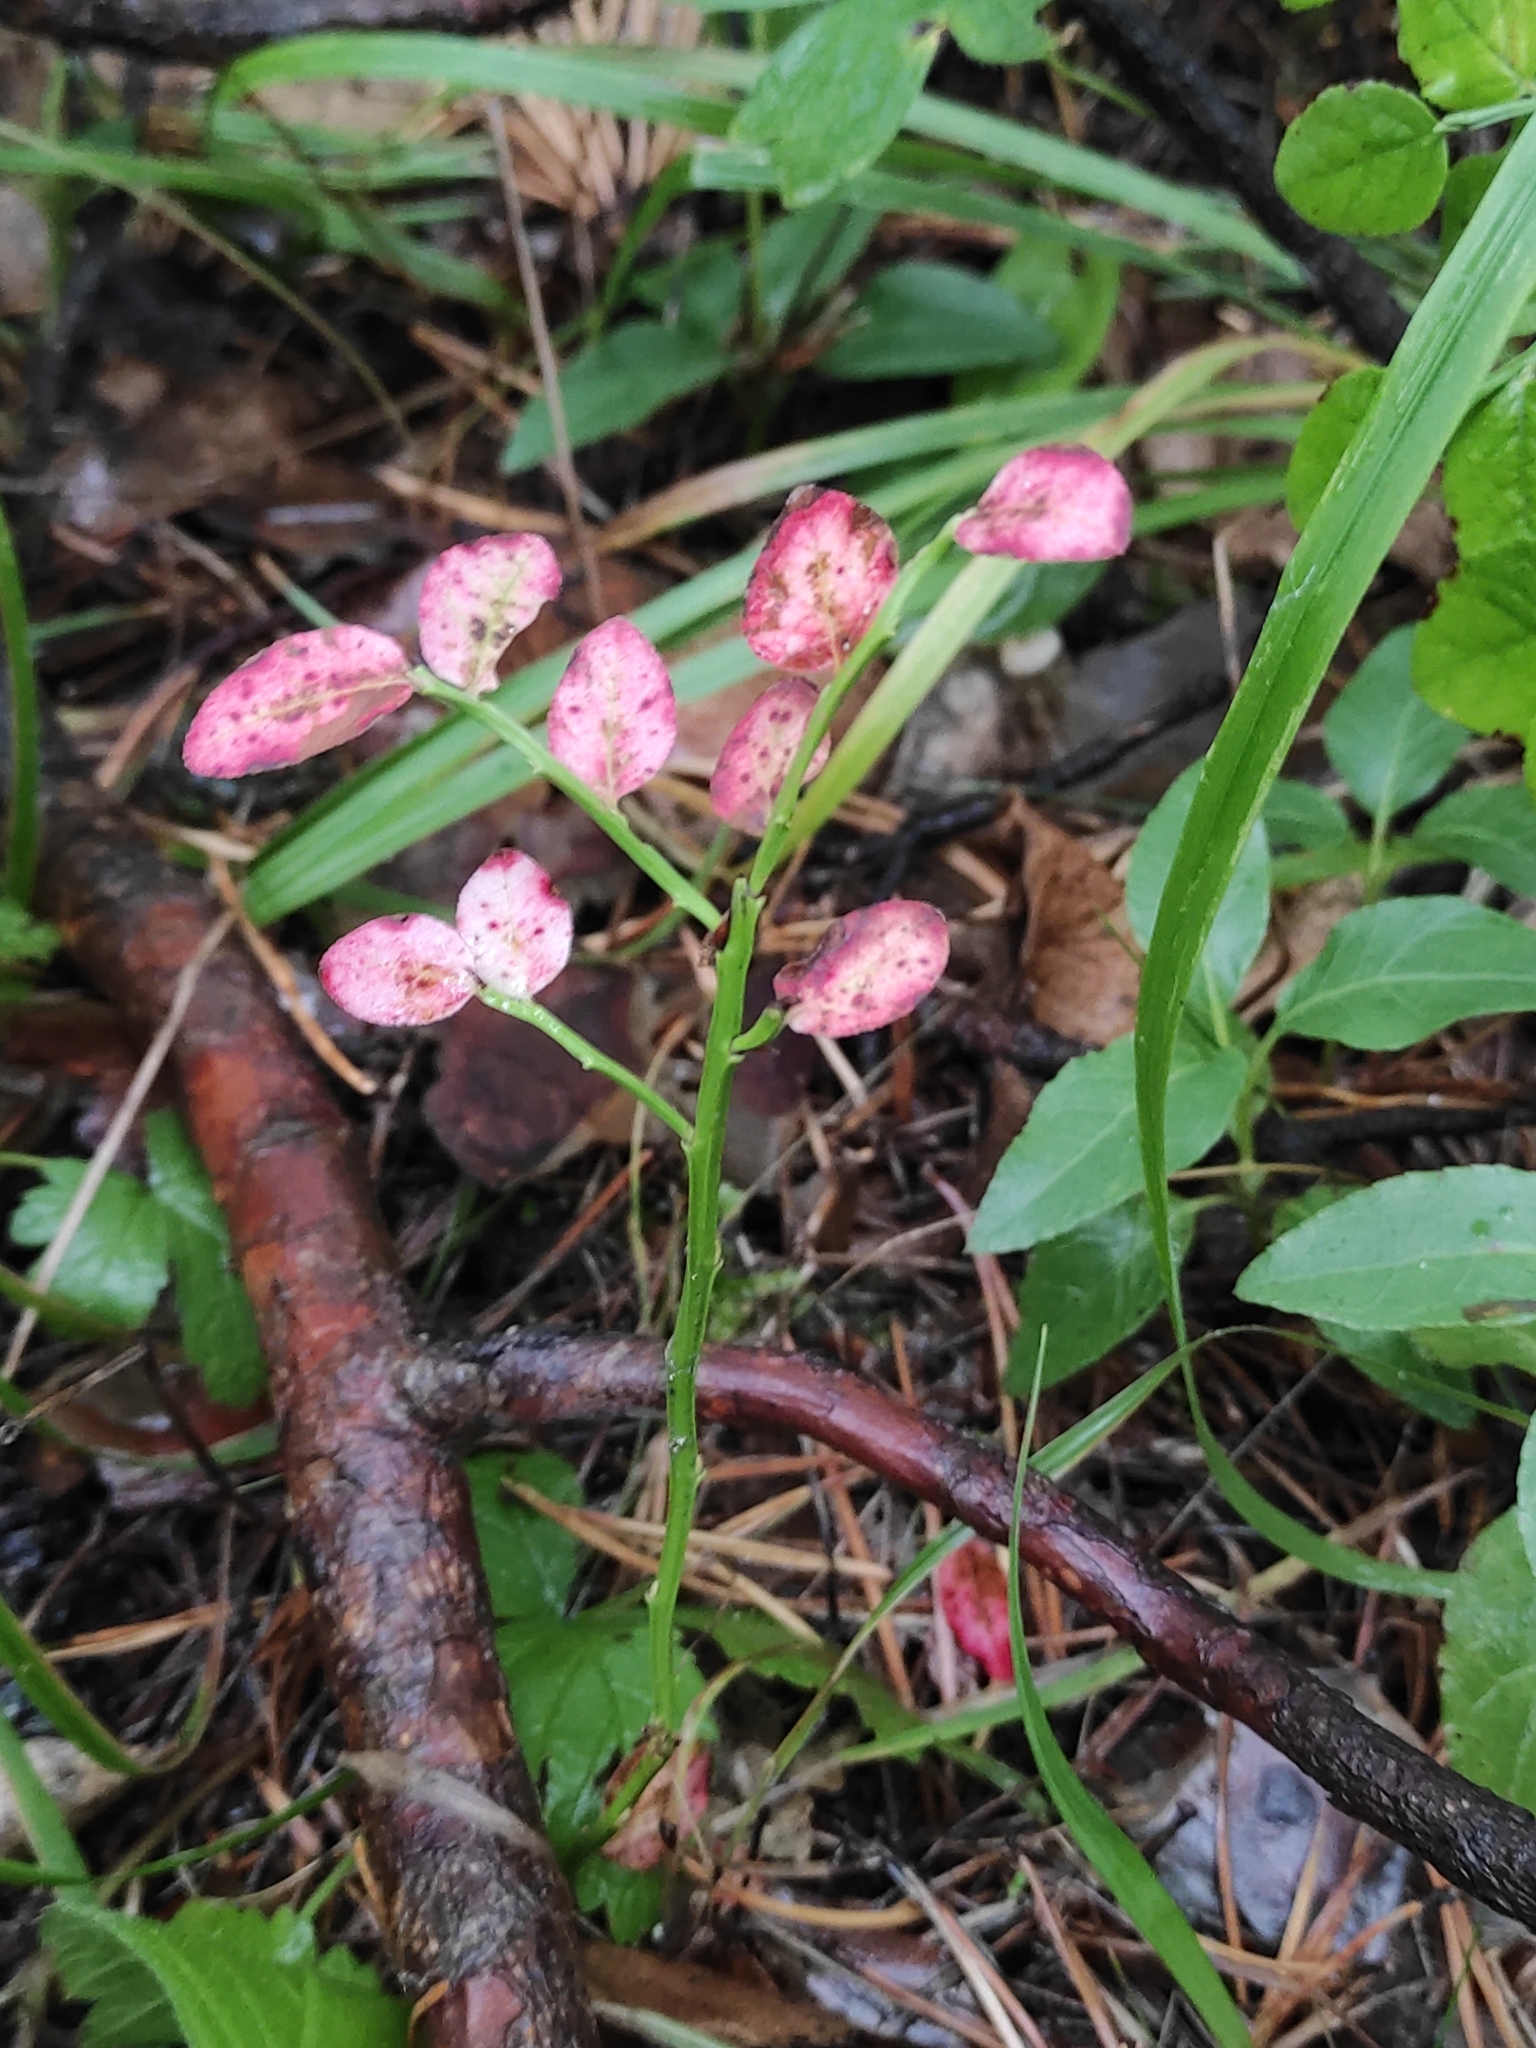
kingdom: Plantae
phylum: Tracheophyta
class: Magnoliopsida
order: Ericales
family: Ericaceae
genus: Vaccinium
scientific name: Vaccinium myrtillus
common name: Bilberry
